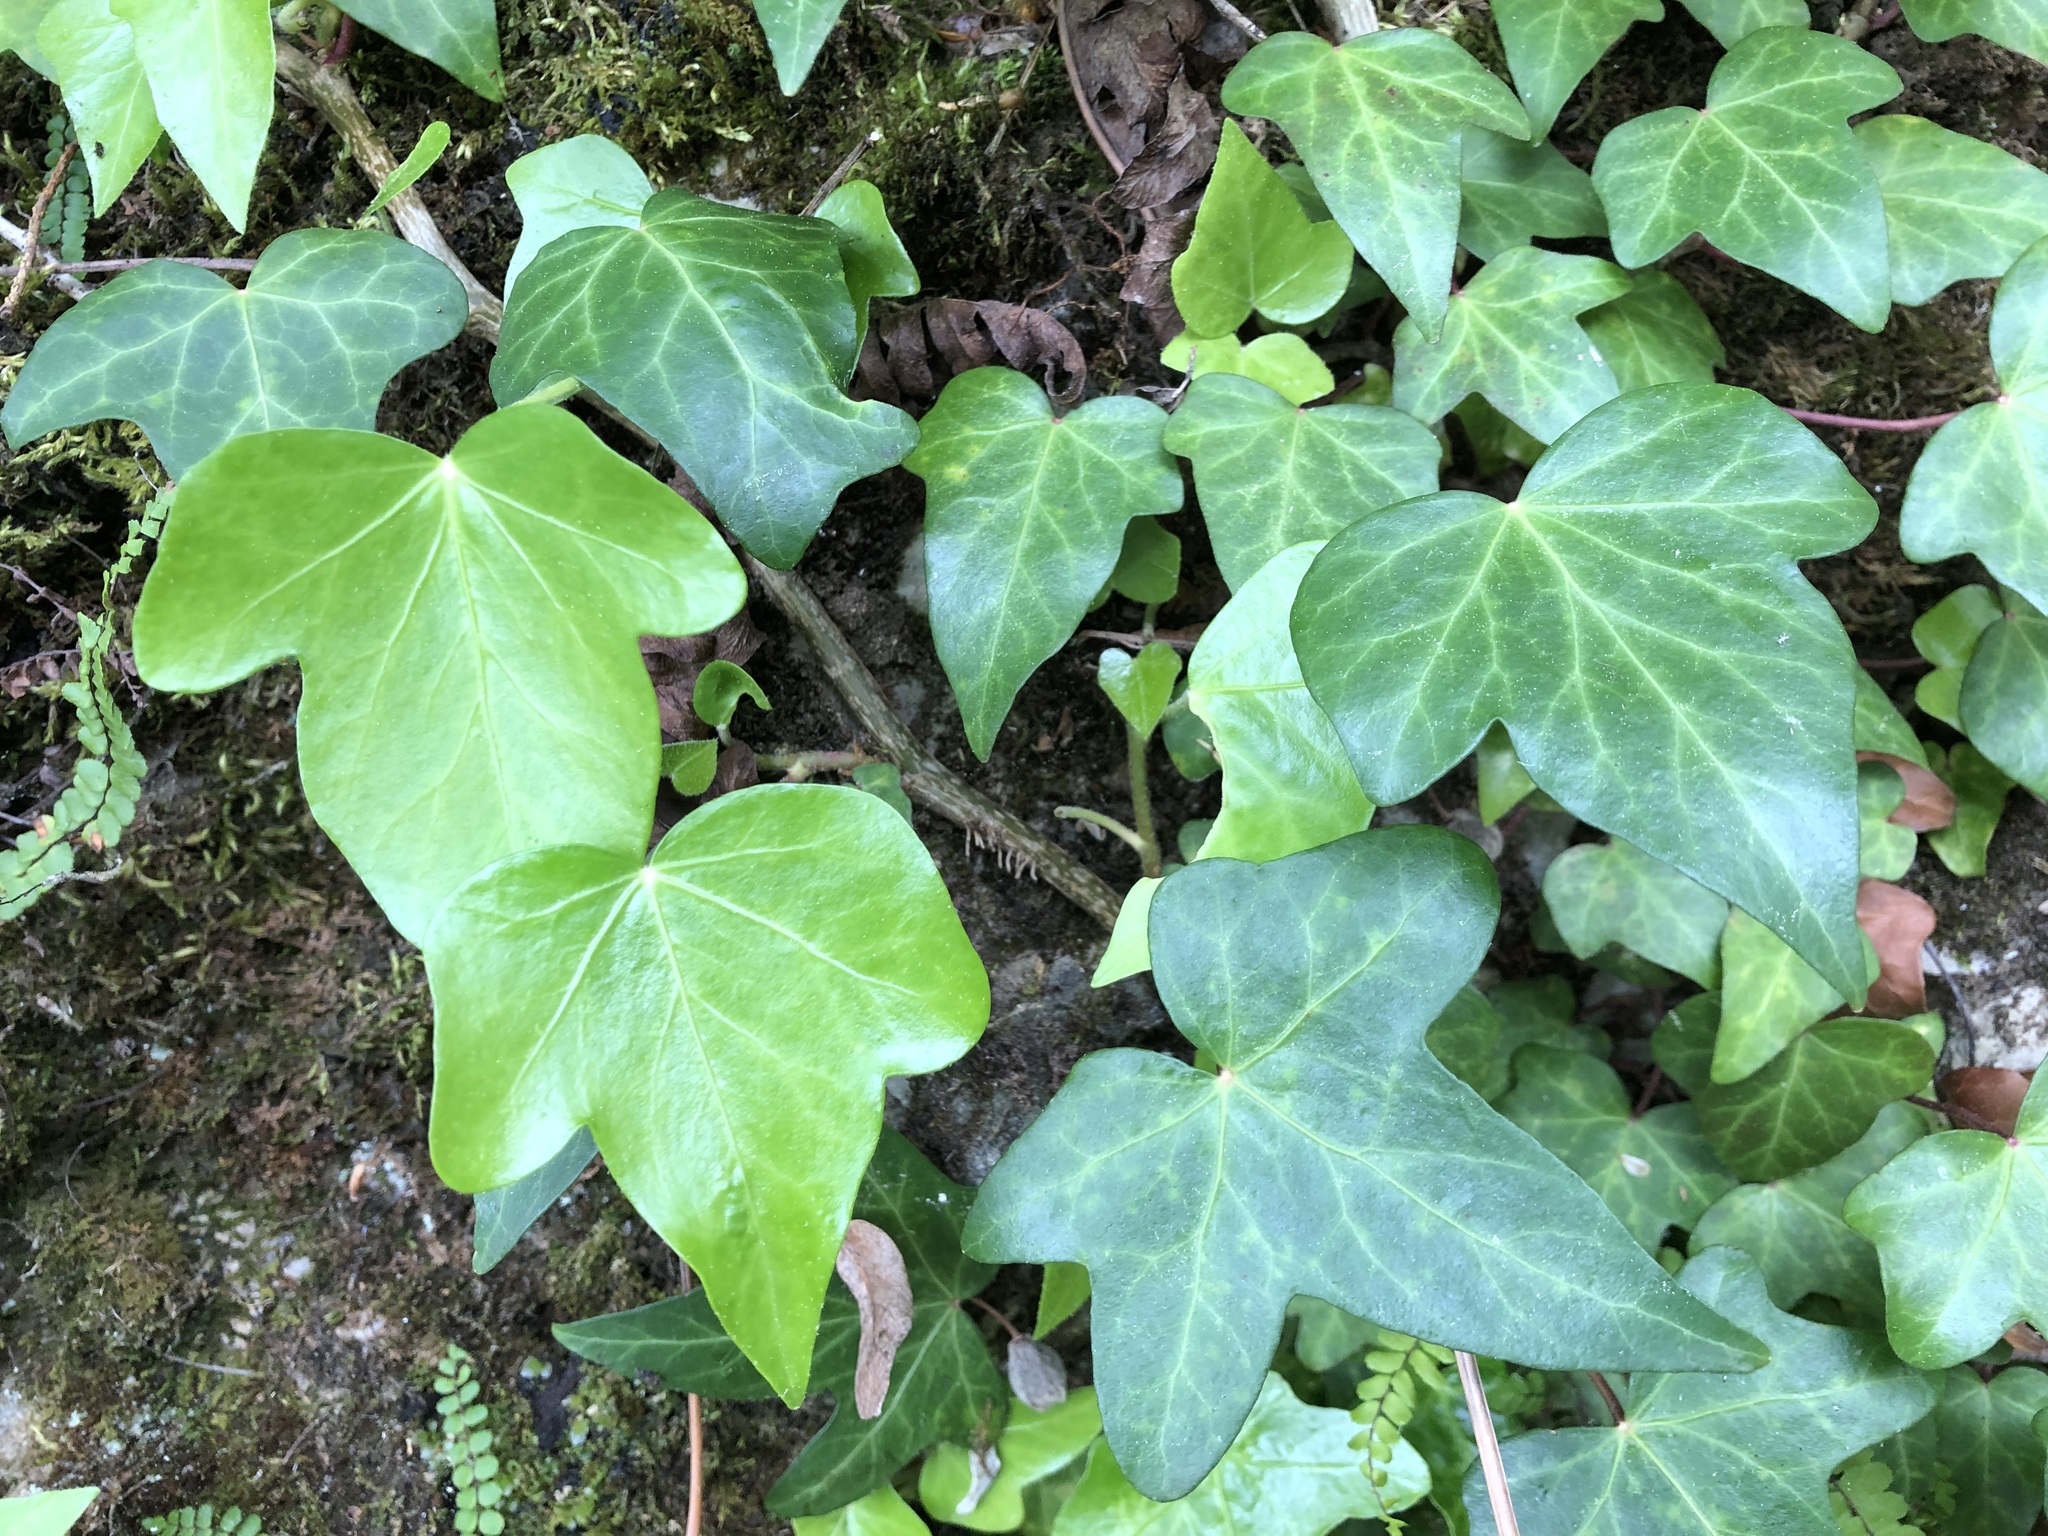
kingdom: Plantae
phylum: Tracheophyta
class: Magnoliopsida
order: Apiales
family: Araliaceae
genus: Hedera
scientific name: Hedera helix
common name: Ivy
